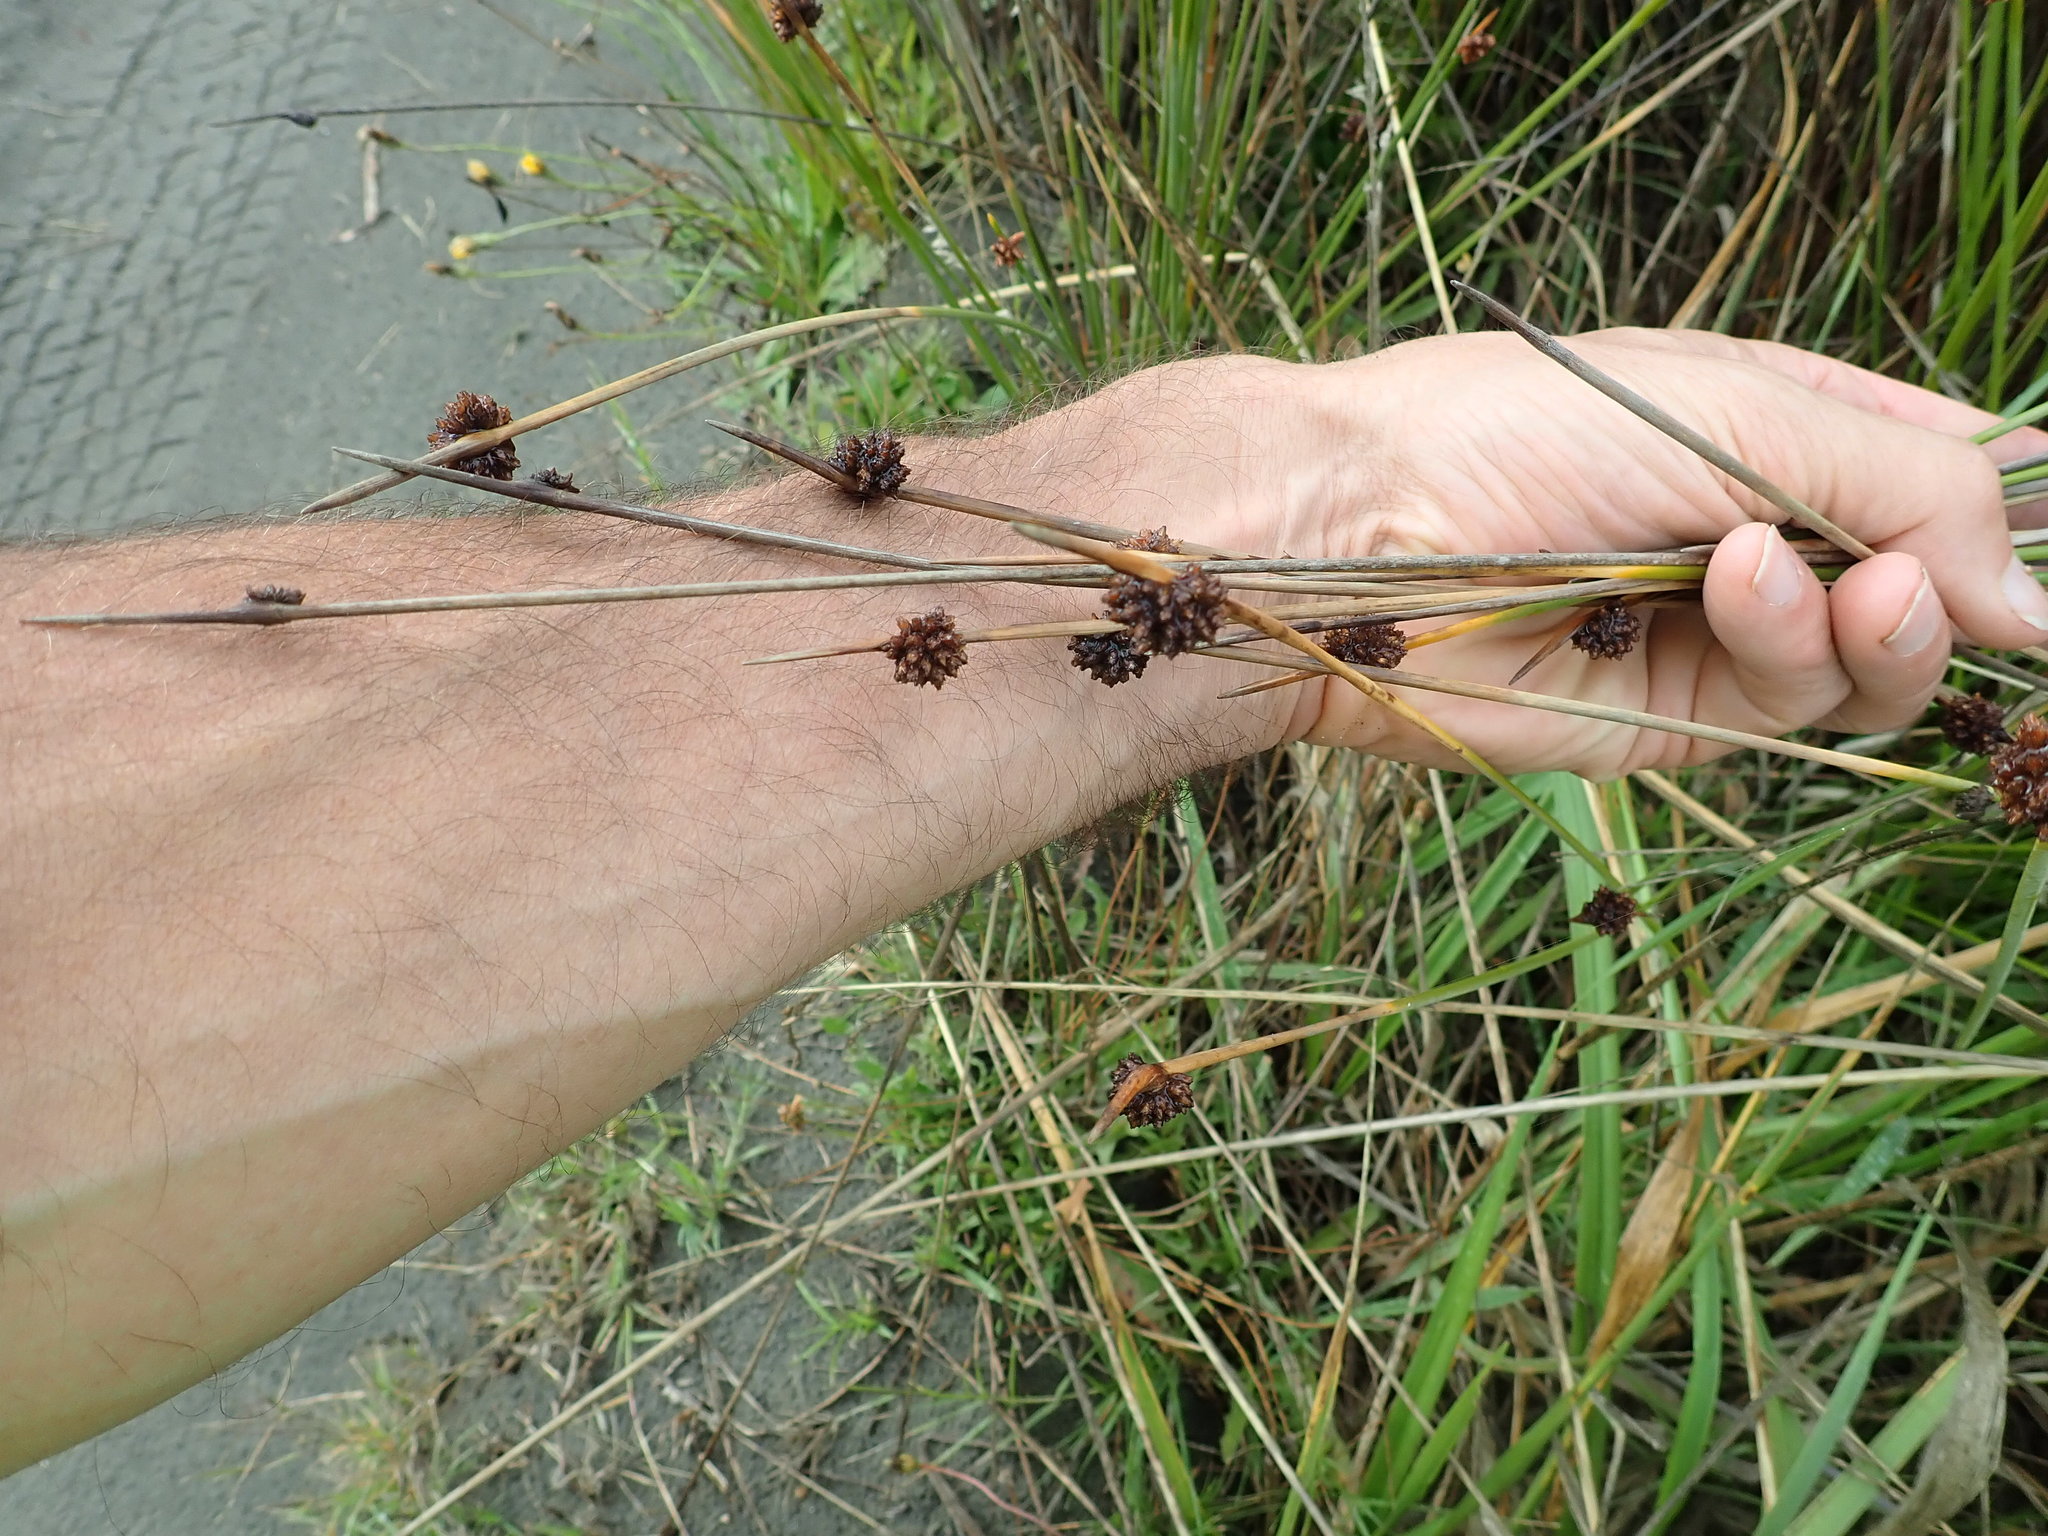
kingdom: Plantae
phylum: Tracheophyta
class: Liliopsida
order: Poales
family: Cyperaceae
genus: Ficinia
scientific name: Ficinia nodosa
